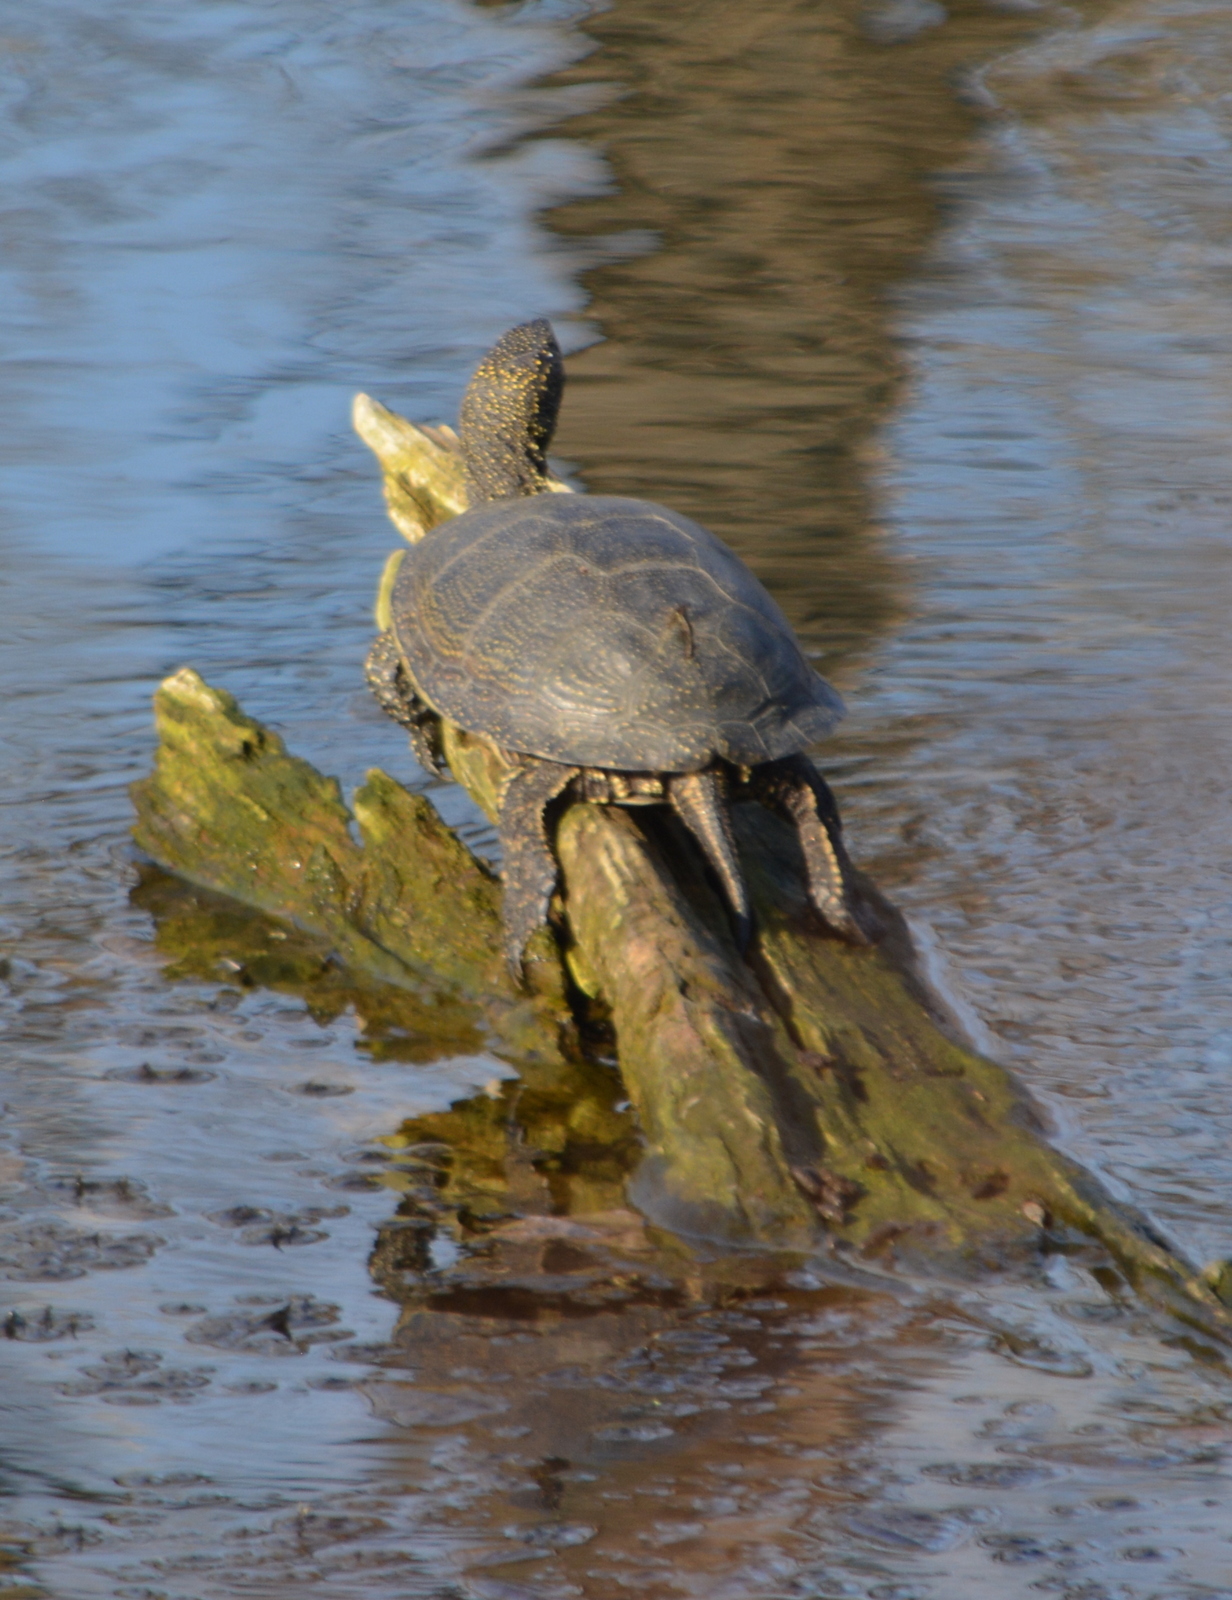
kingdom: Animalia
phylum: Chordata
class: Testudines
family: Emydidae
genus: Emys
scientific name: Emys orbicularis
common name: European pond turtle
